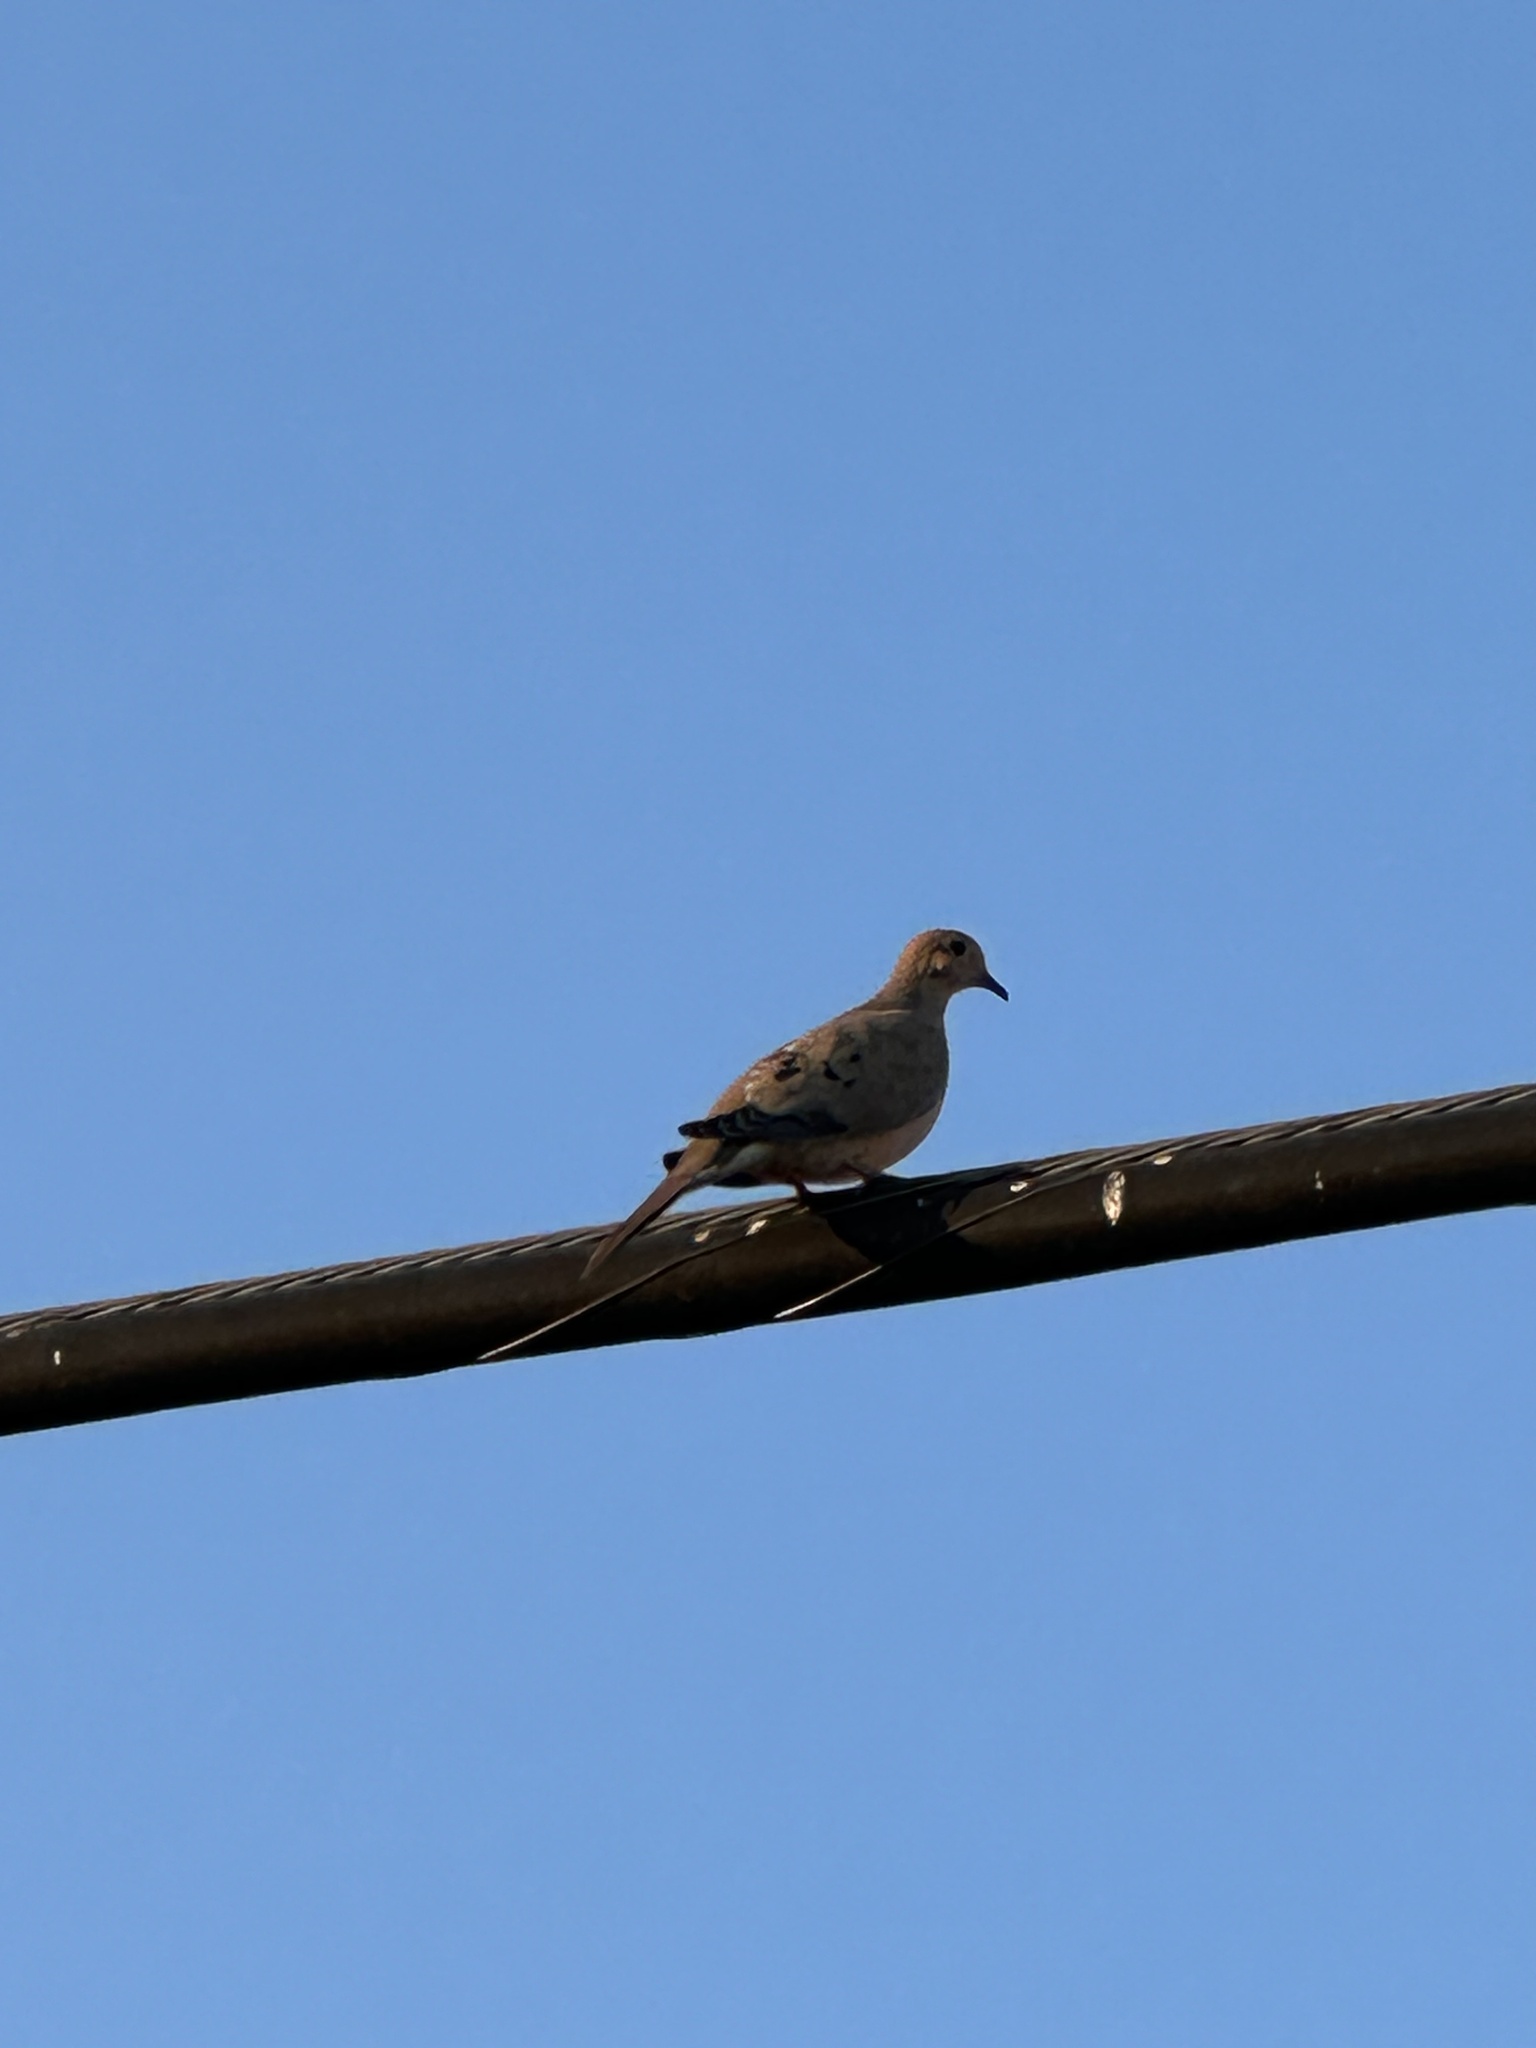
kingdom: Animalia
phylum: Chordata
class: Aves
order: Columbiformes
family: Columbidae
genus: Zenaida
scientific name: Zenaida macroura
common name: Mourning dove
